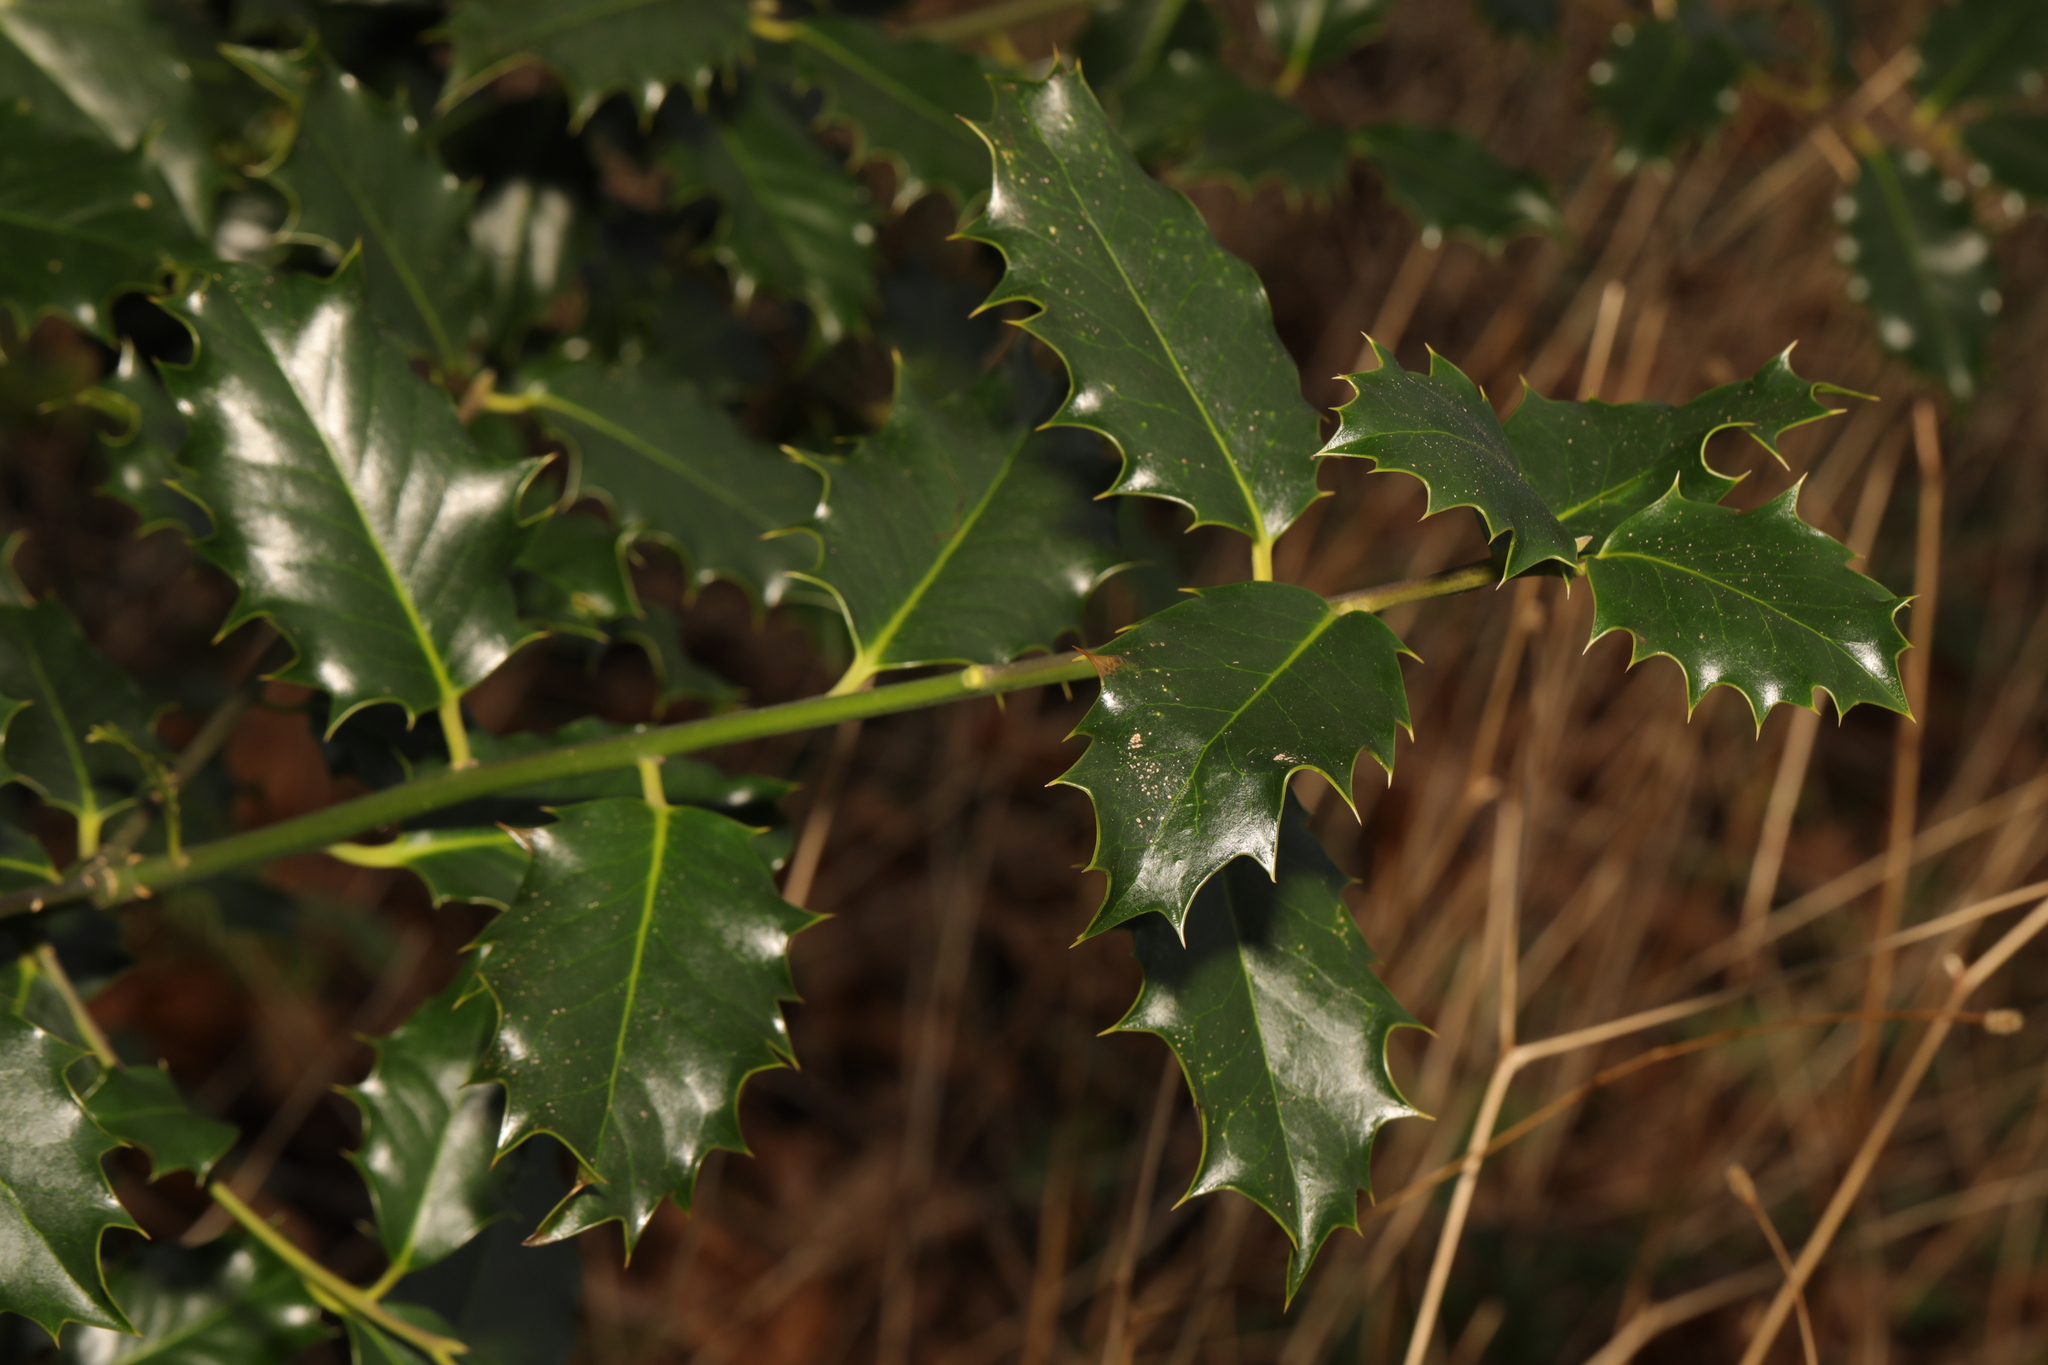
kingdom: Plantae
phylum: Tracheophyta
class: Magnoliopsida
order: Aquifoliales
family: Aquifoliaceae
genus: Ilex
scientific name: Ilex aquifolium
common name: English holly
